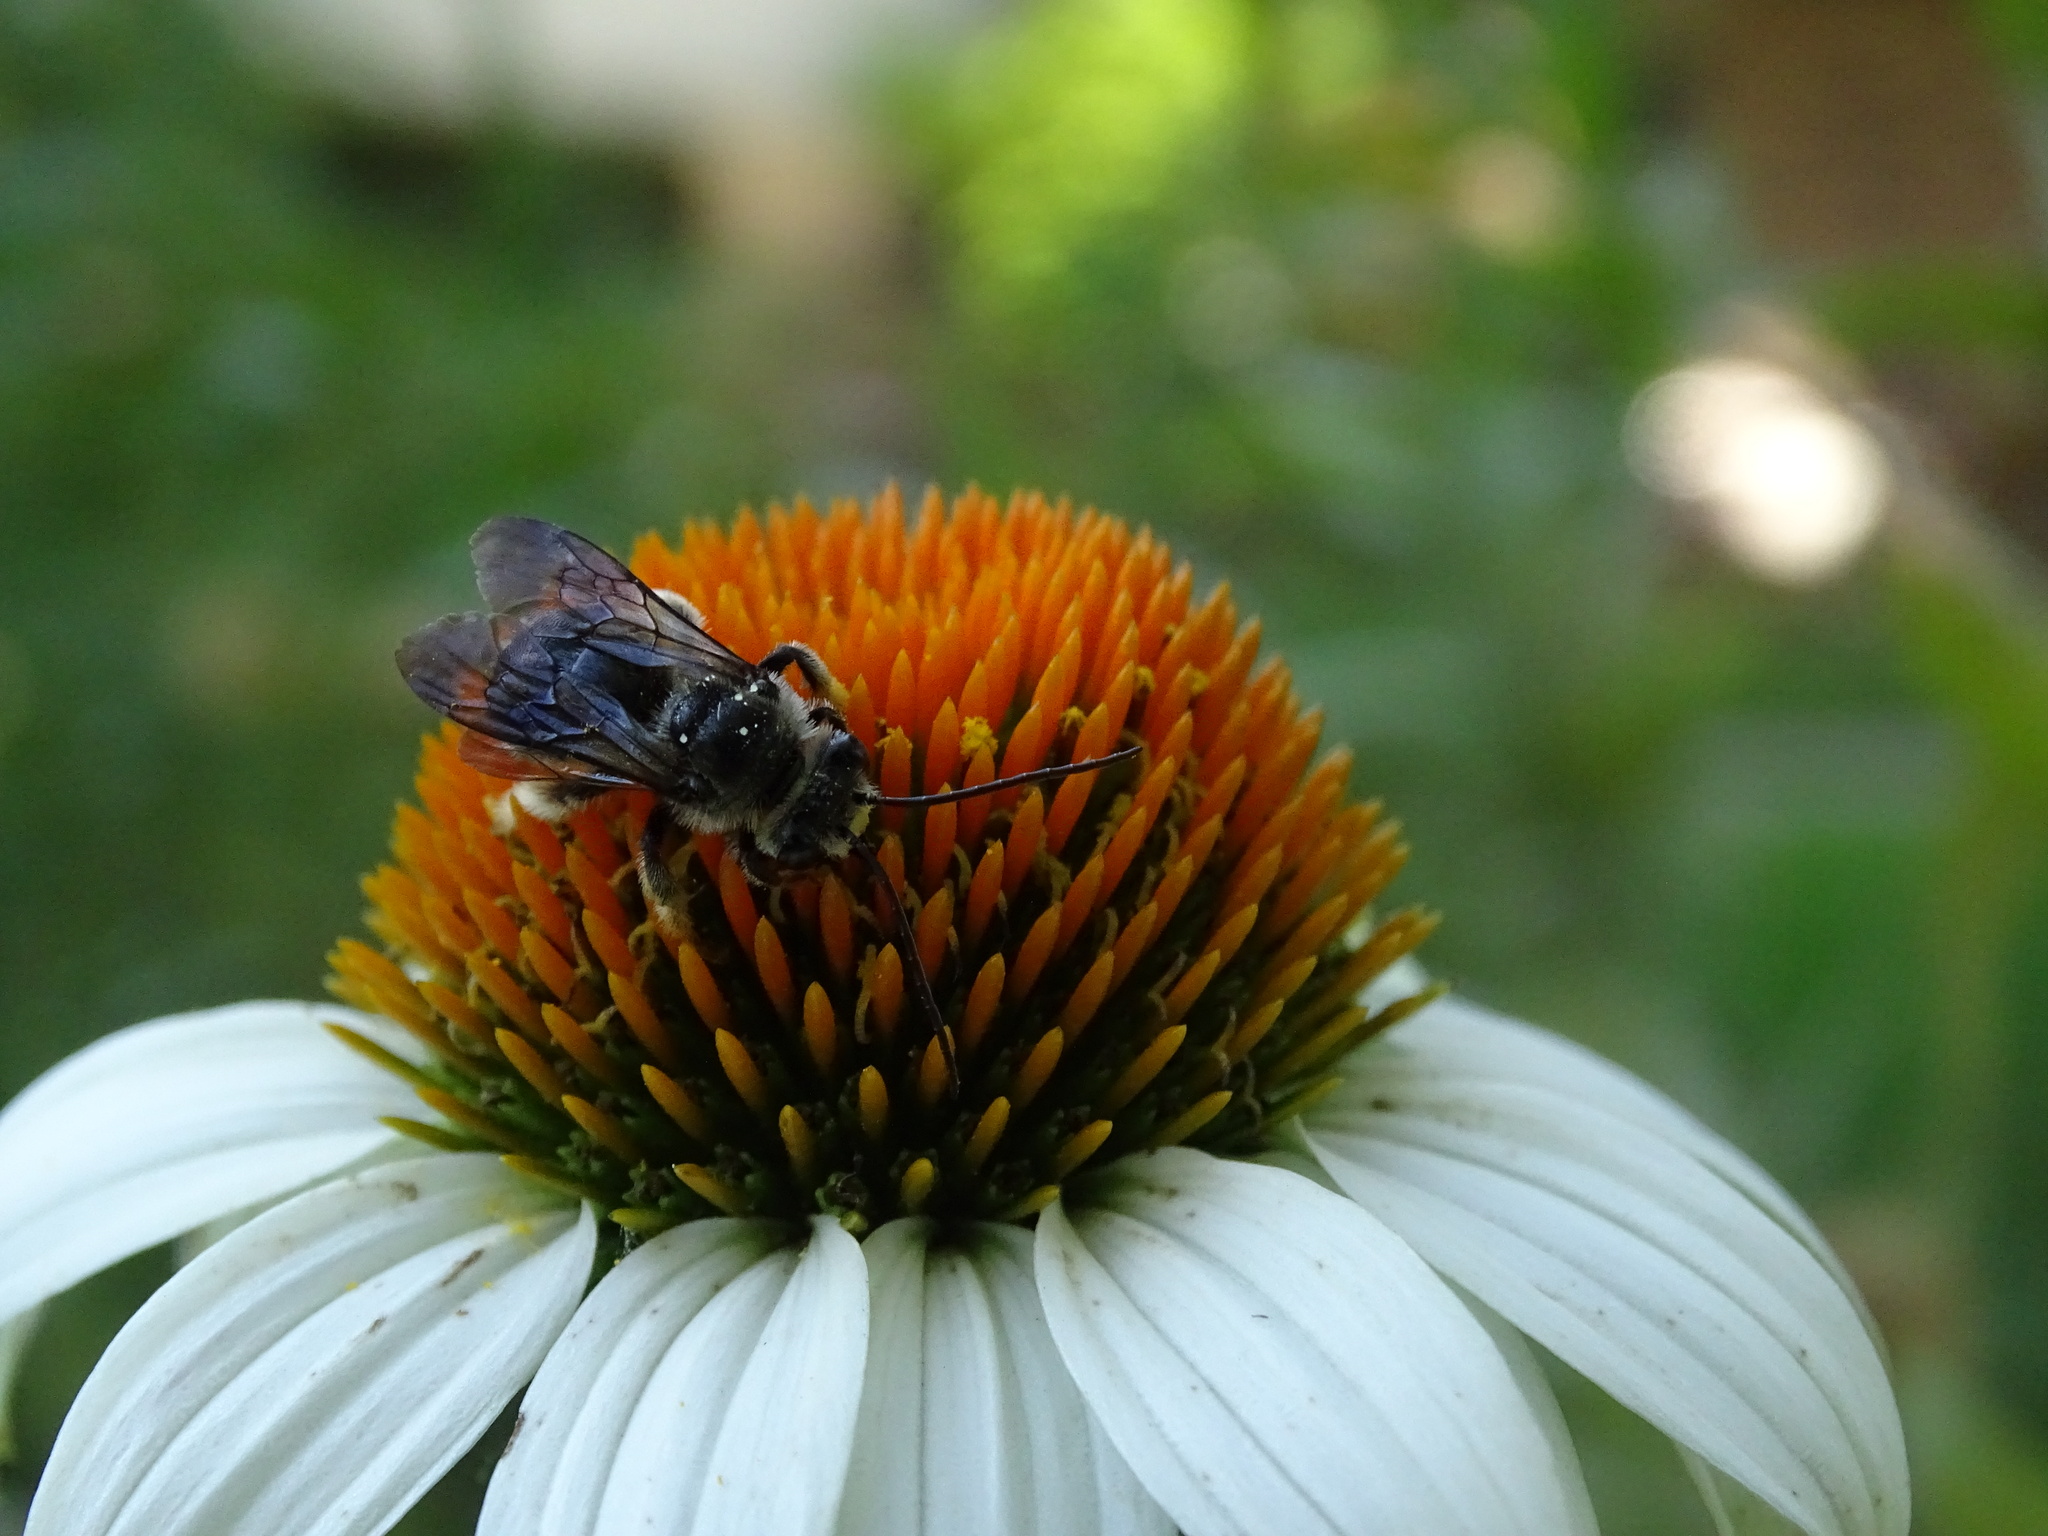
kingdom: Animalia
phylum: Arthropoda
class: Insecta
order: Hymenoptera
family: Apidae
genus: Melissodes
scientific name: Melissodes bimaculatus
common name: Two-spotted long-horned bee
